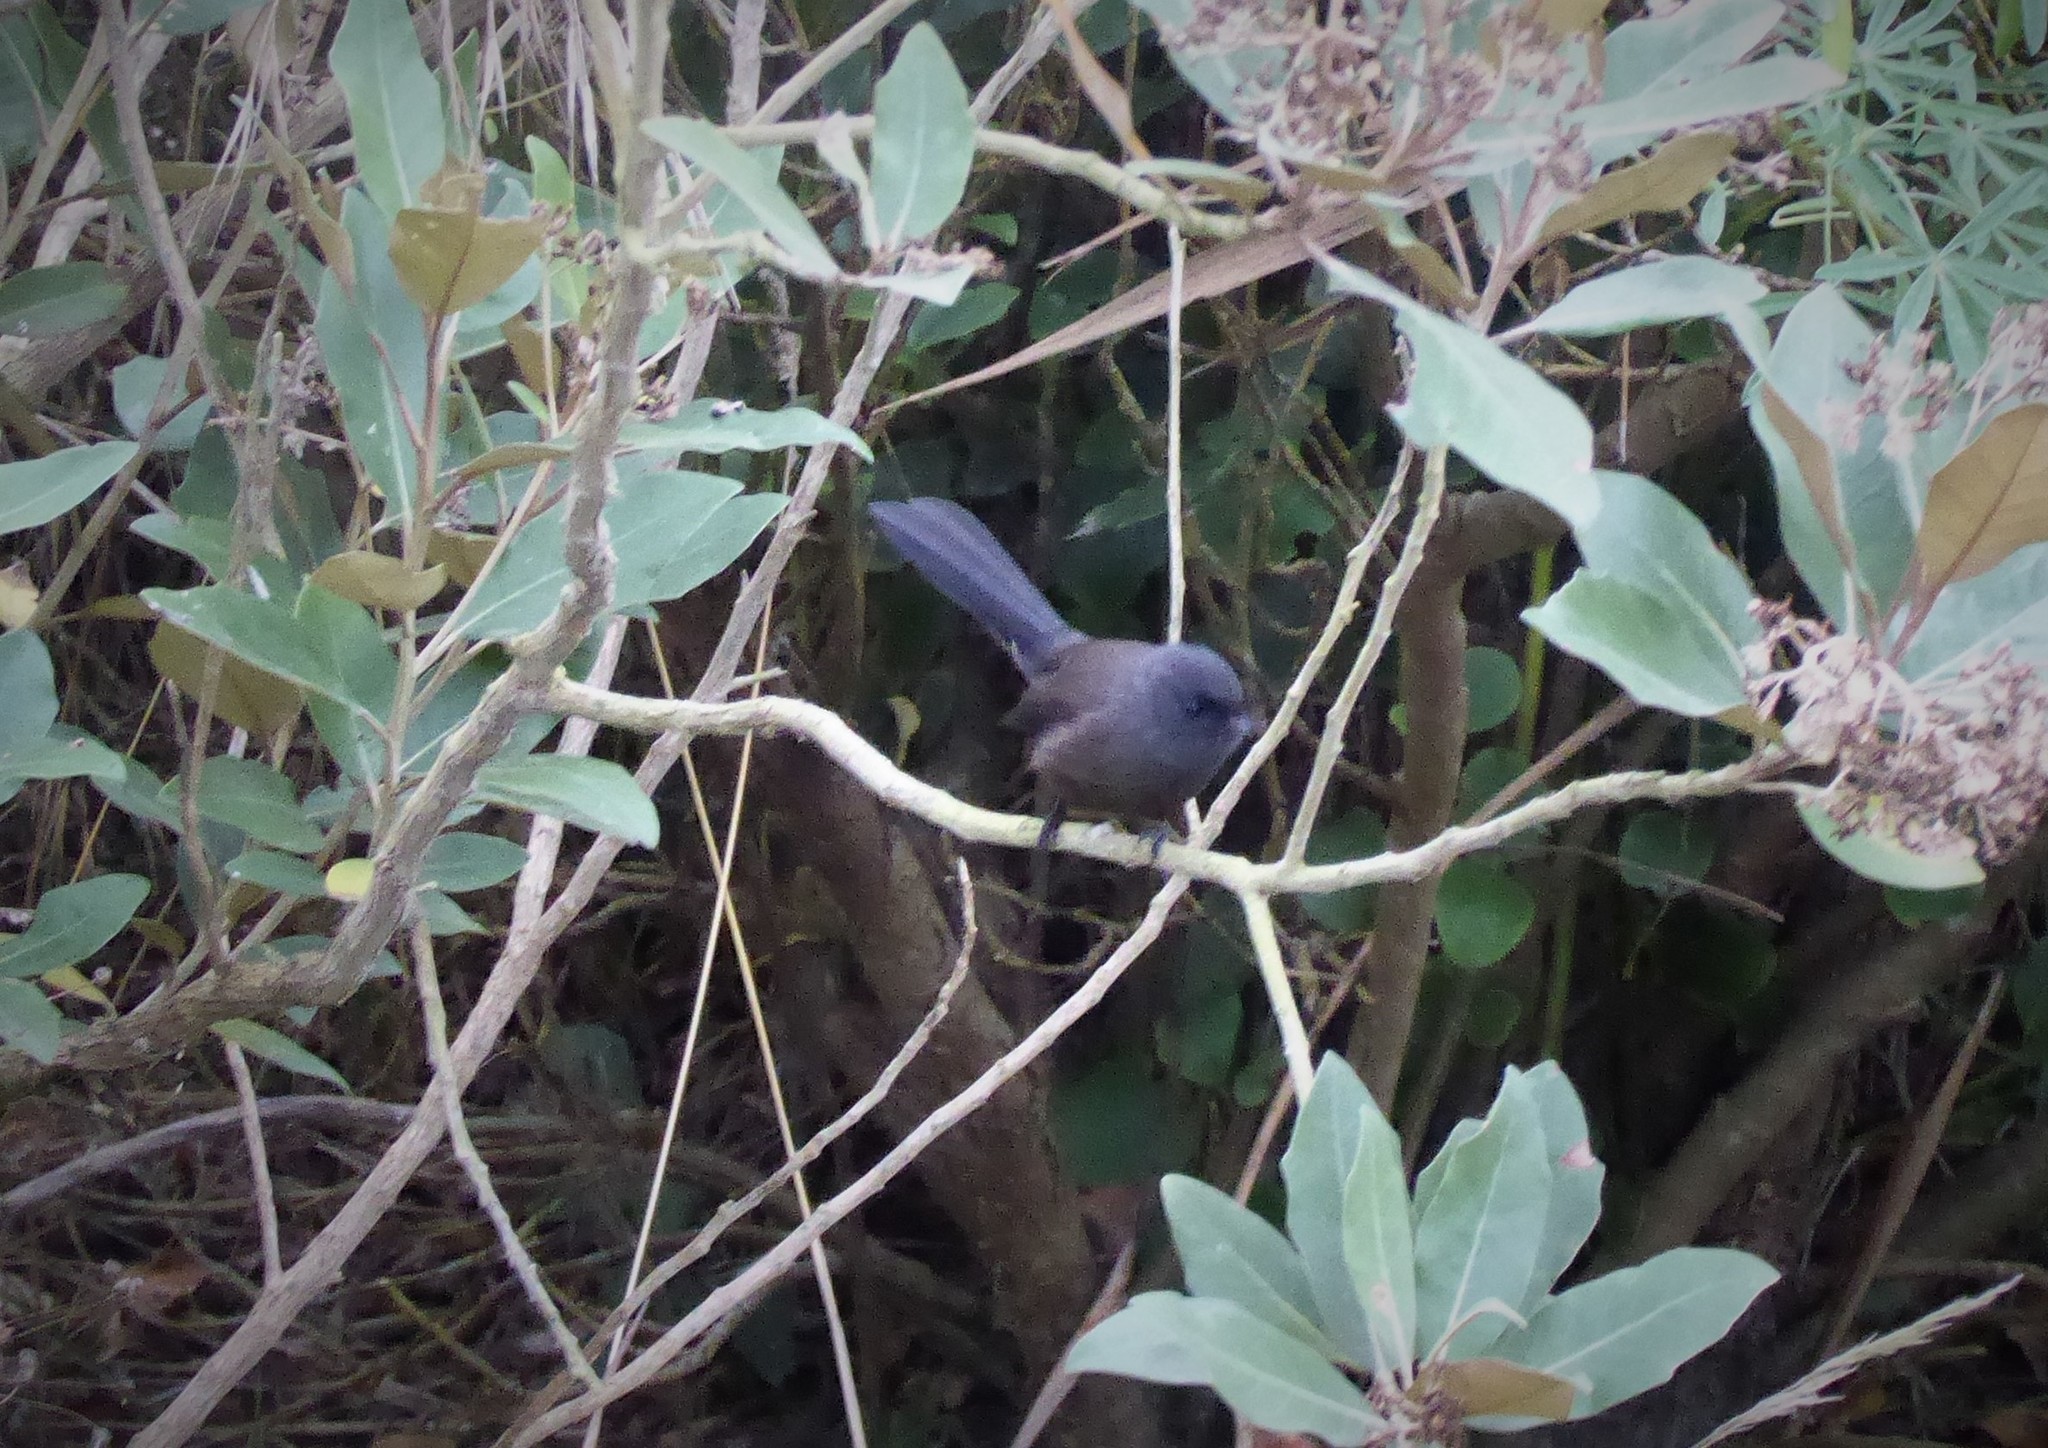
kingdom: Animalia
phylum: Chordata
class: Aves
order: Passeriformes
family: Rhipiduridae
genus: Rhipidura
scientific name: Rhipidura fuliginosa
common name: New zealand fantail
